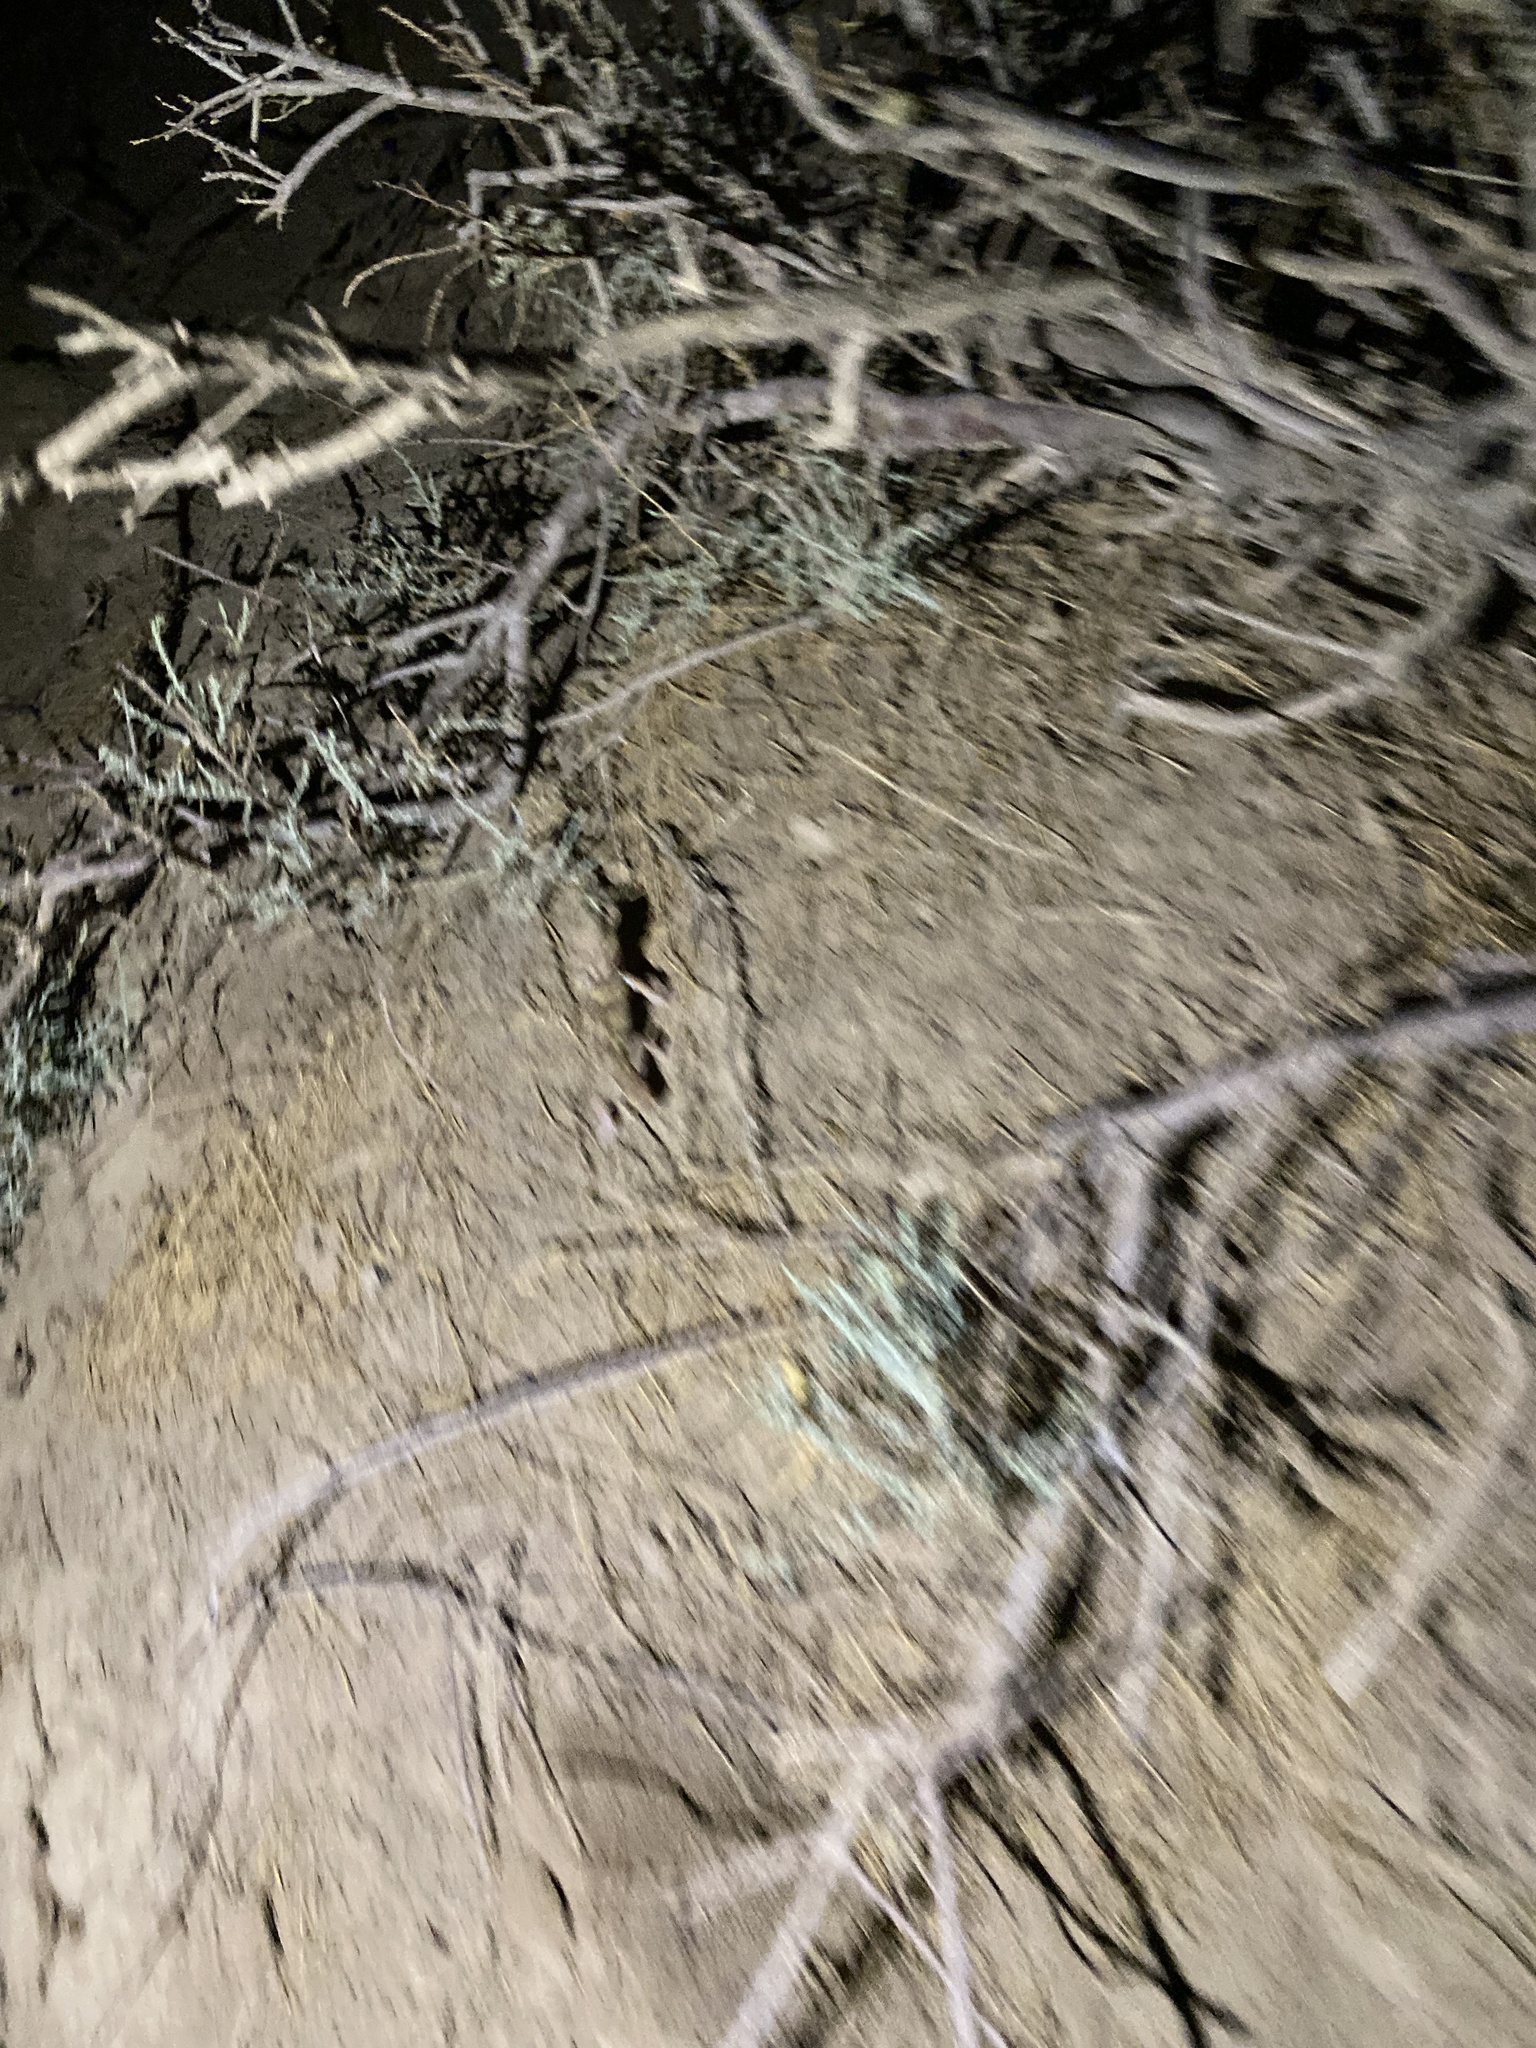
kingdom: Animalia
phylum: Chordata
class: Squamata
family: Sphaerodactylidae
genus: Teratoscincus
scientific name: Teratoscincus bedriagai
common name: Bedriaga's plate-tailed gecko
